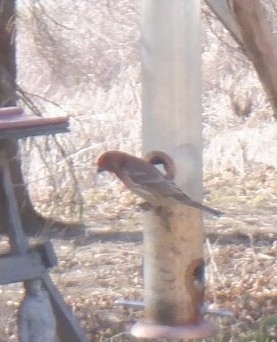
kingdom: Animalia
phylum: Chordata
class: Aves
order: Passeriformes
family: Fringillidae
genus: Haemorhous
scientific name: Haemorhous mexicanus
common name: House finch
